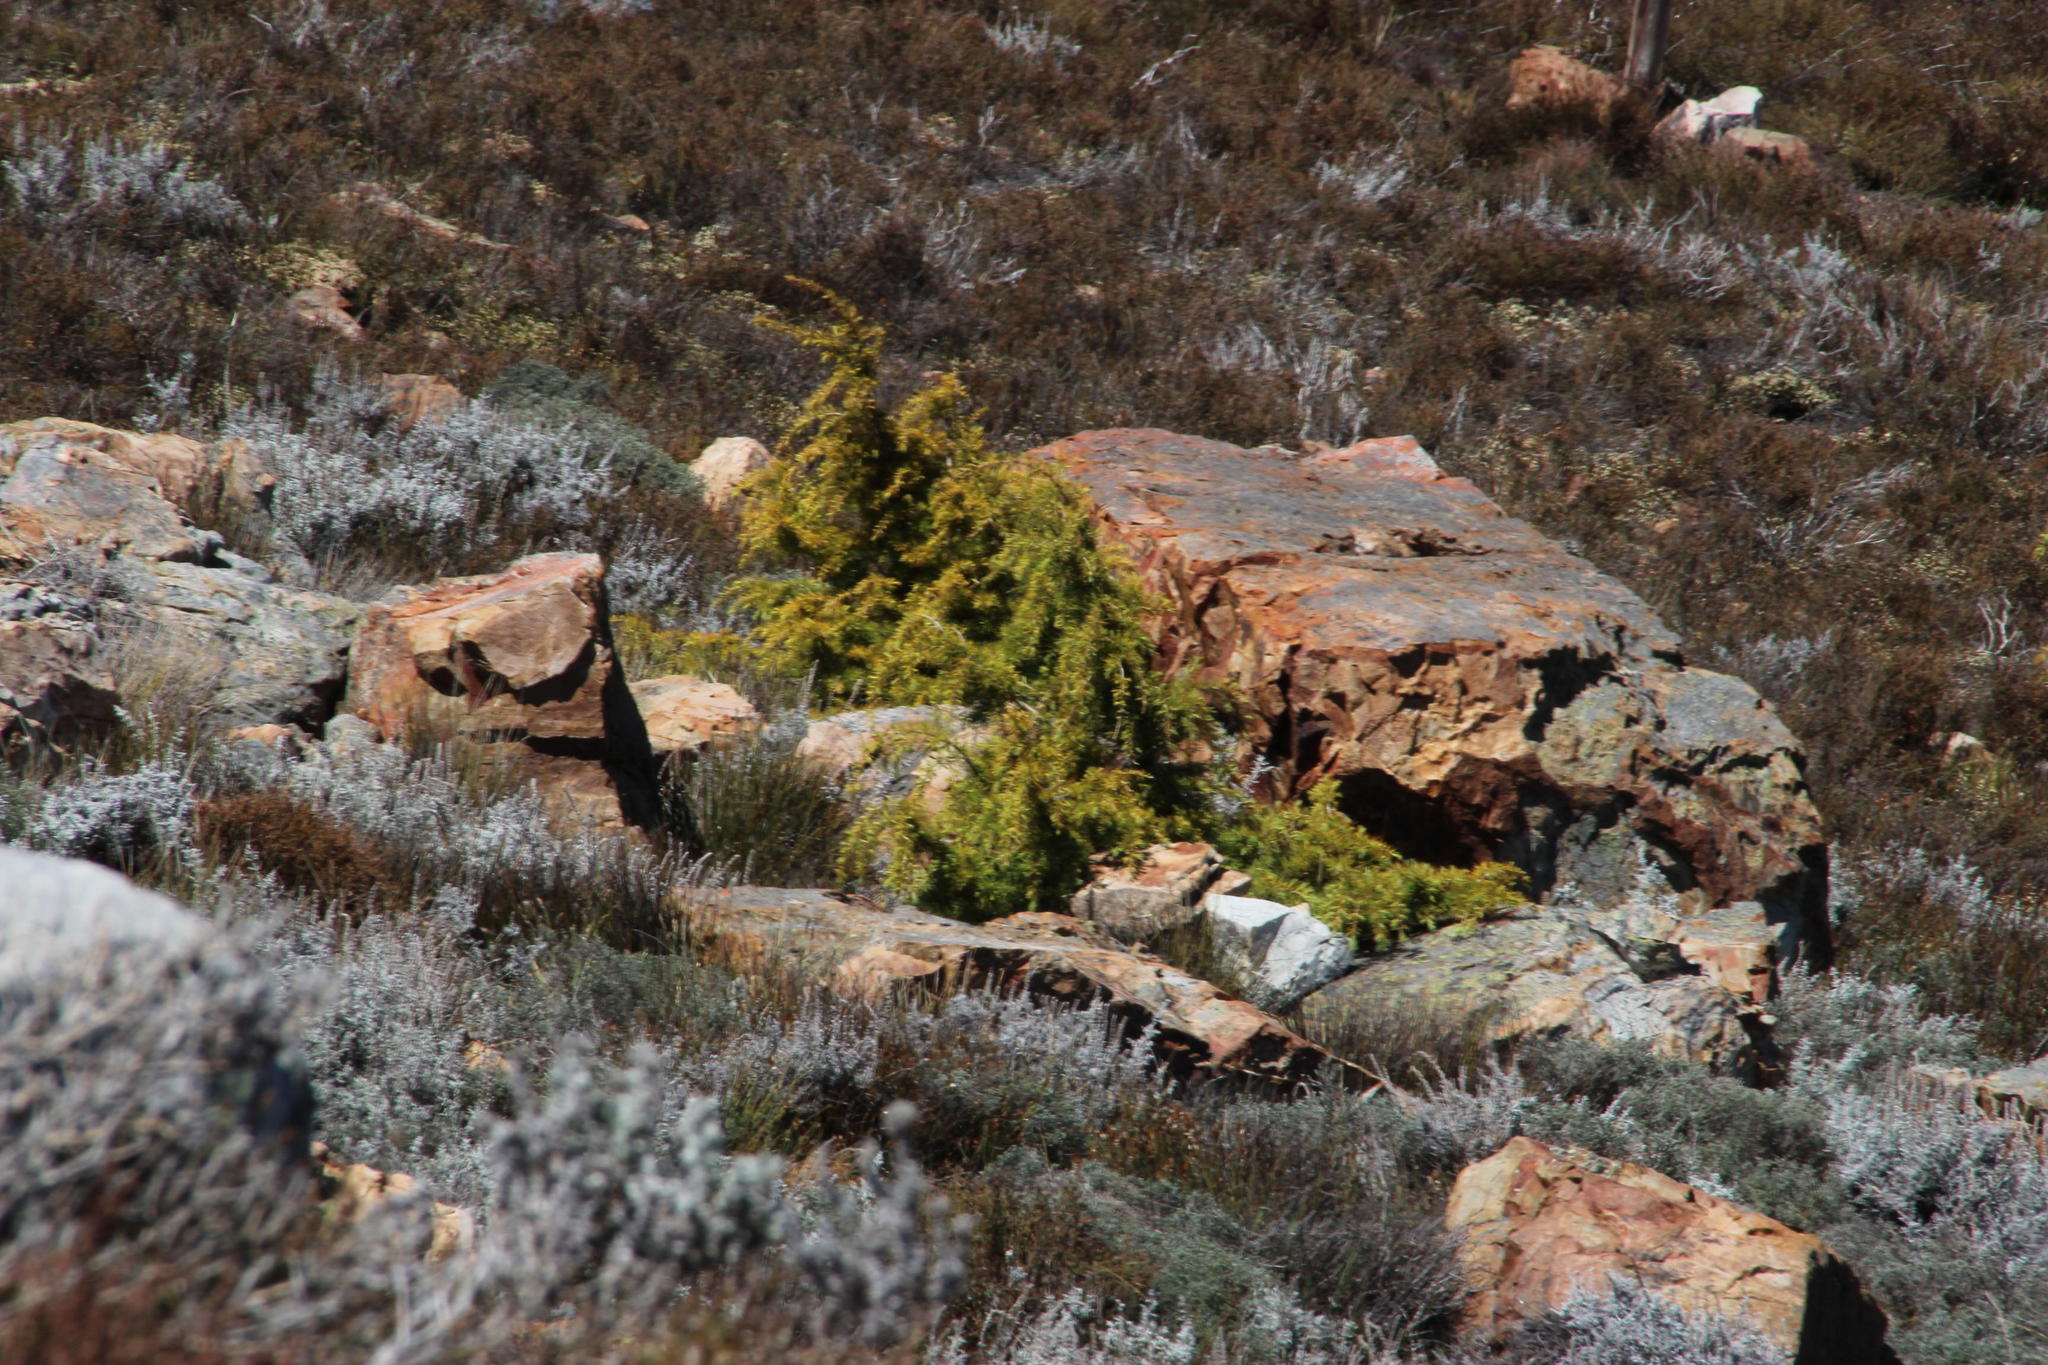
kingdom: Plantae
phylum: Tracheophyta
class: Pinopsida
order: Pinales
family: Pinaceae
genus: Cedrus
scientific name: Cedrus libani
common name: Cedar-of-lebanon
